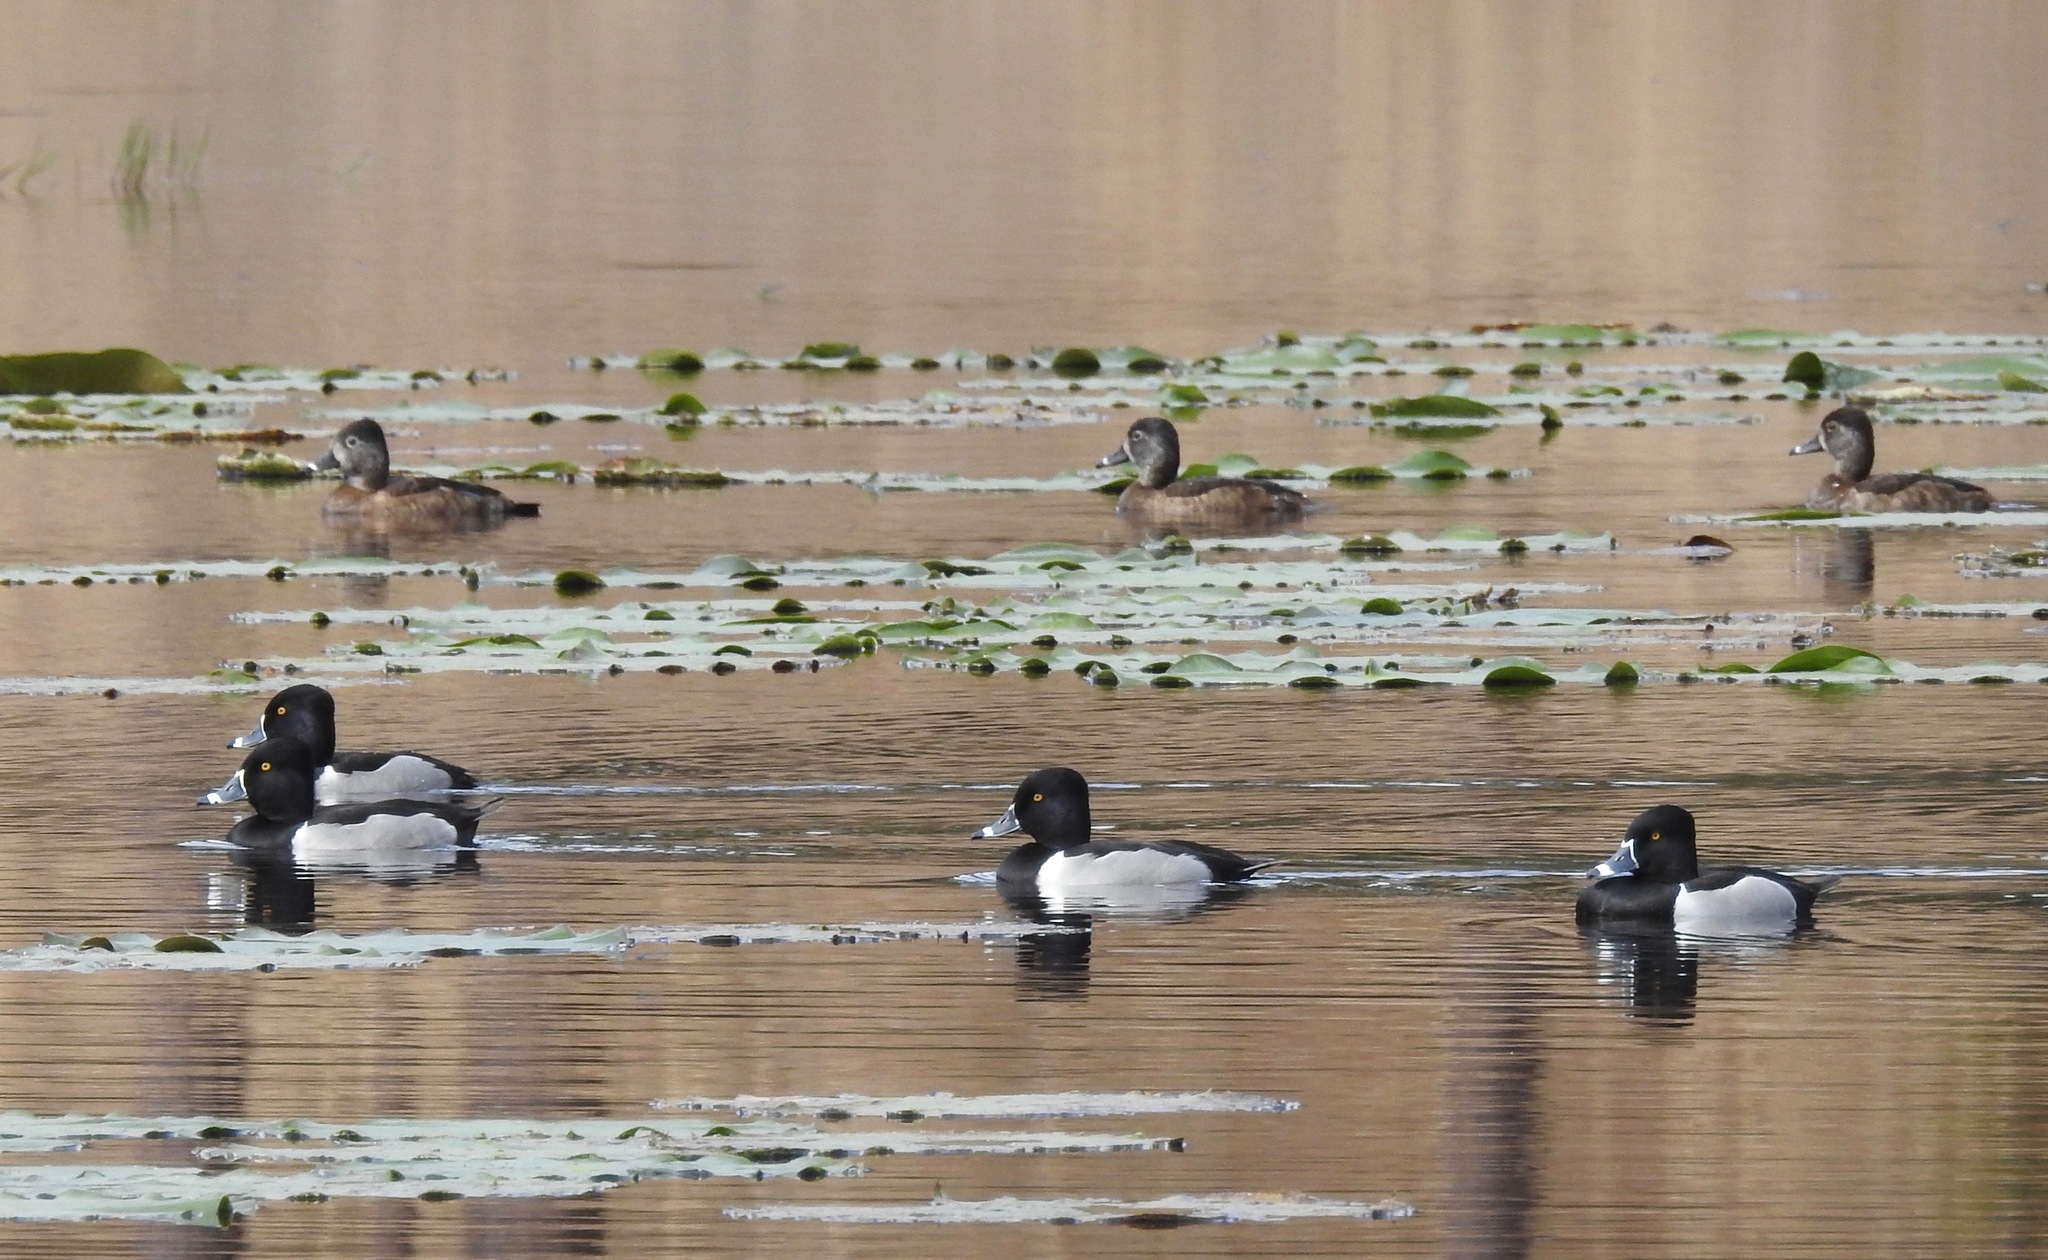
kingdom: Animalia
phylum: Chordata
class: Aves
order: Anseriformes
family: Anatidae
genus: Aythya
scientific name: Aythya collaris
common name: Ring-necked duck
